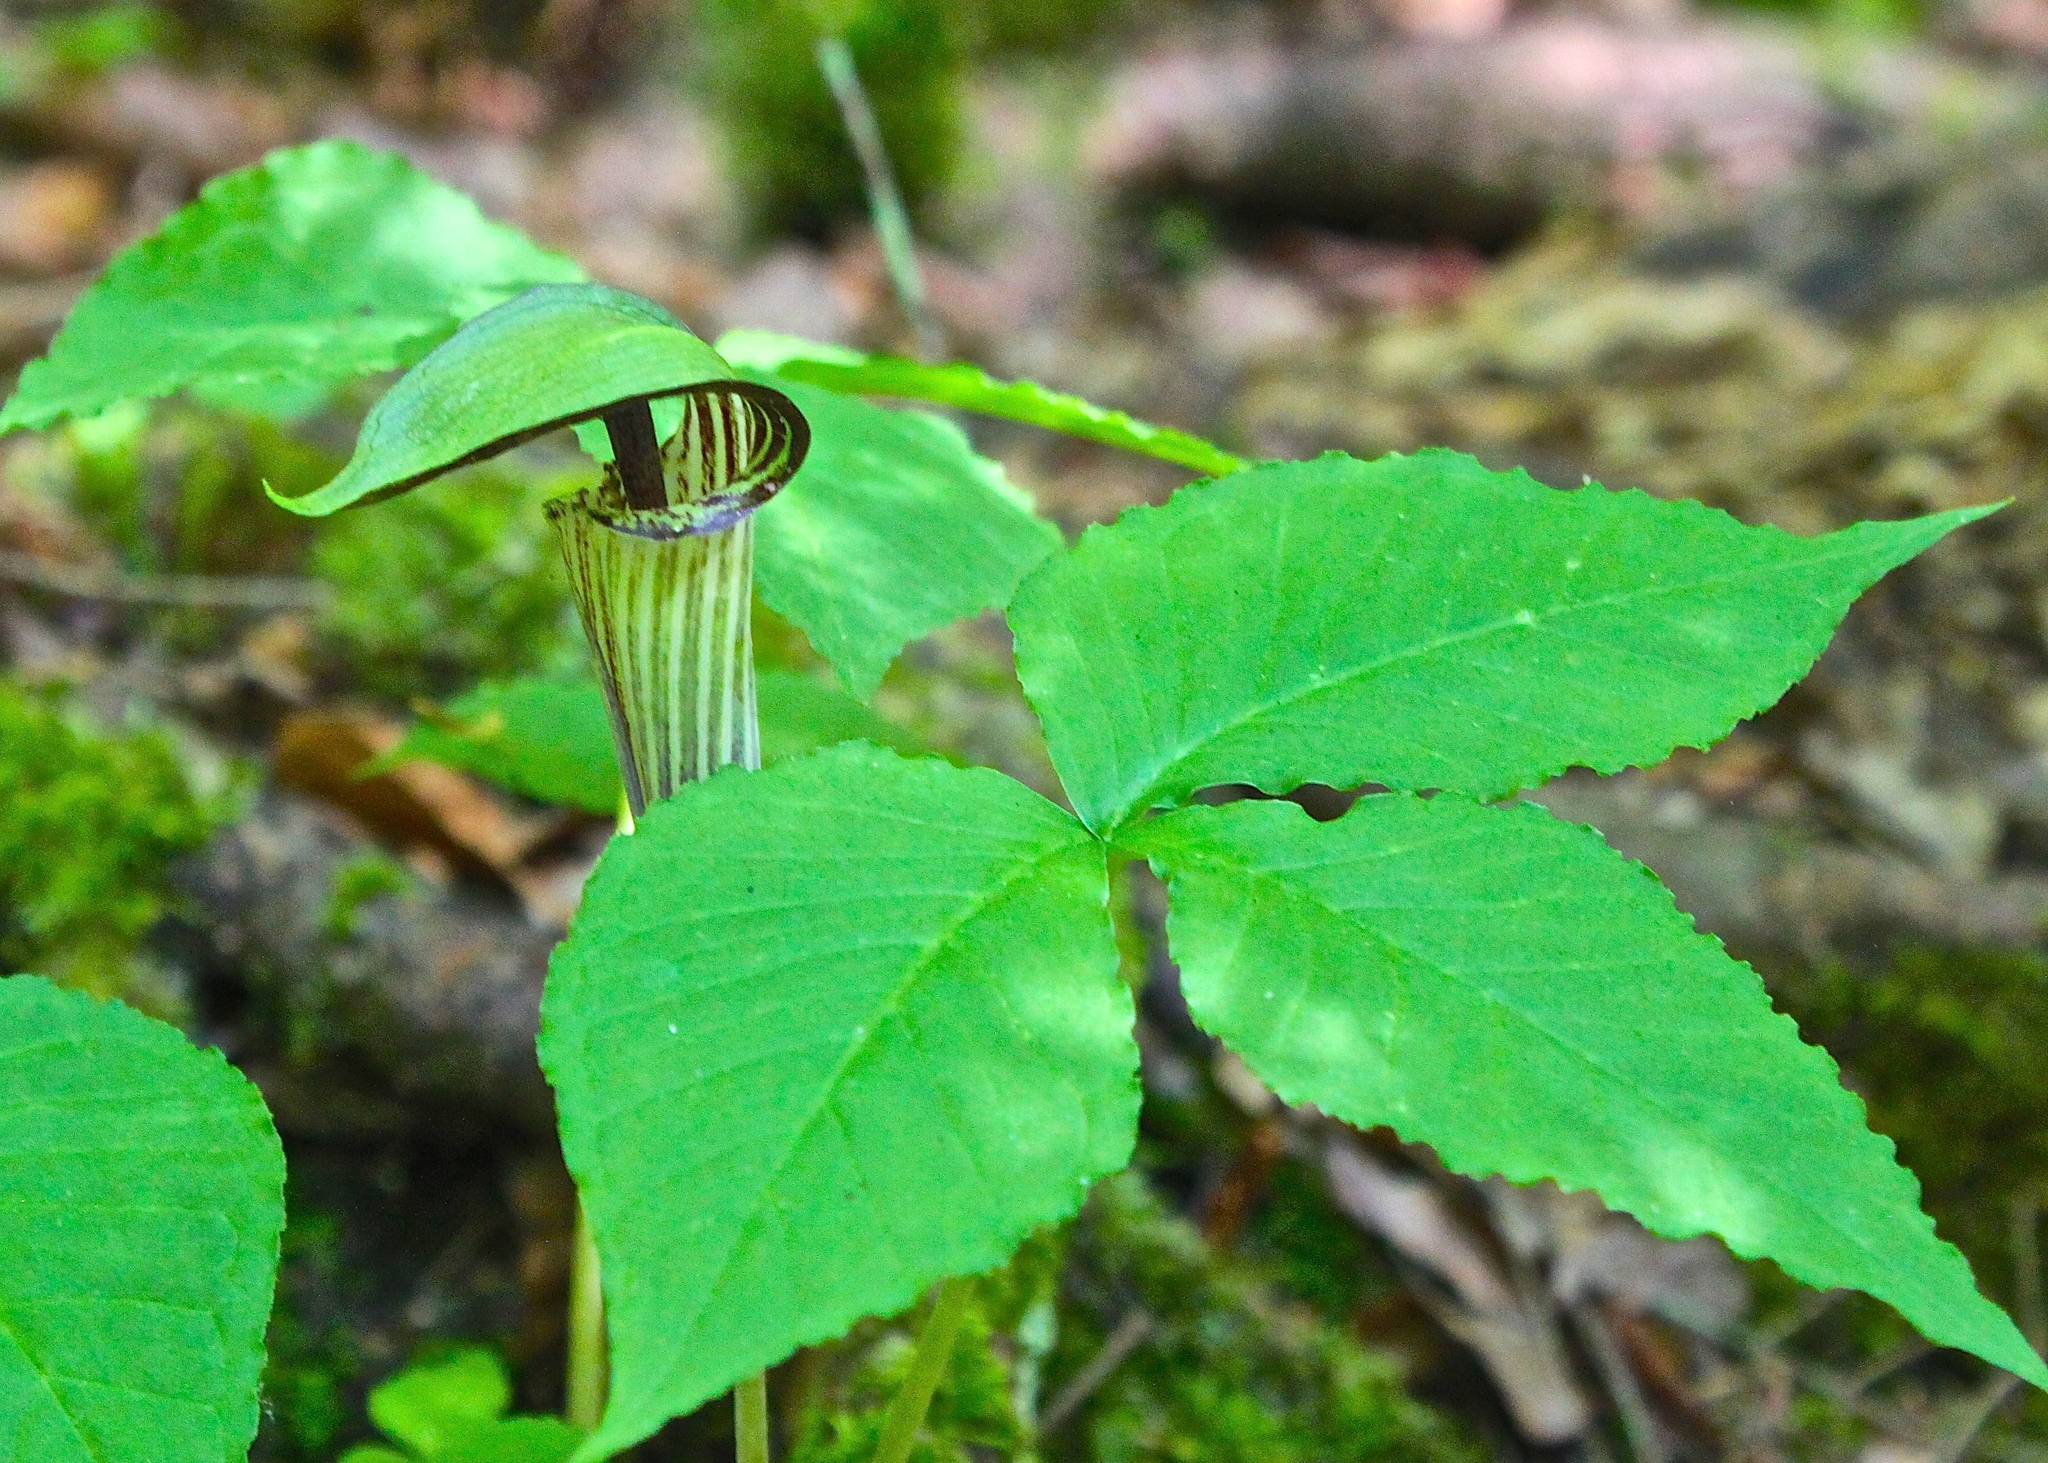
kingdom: Plantae
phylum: Tracheophyta
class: Liliopsida
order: Alismatales
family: Araceae
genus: Arisaema
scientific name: Arisaema triphyllum
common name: Jack-in-the-pulpit
